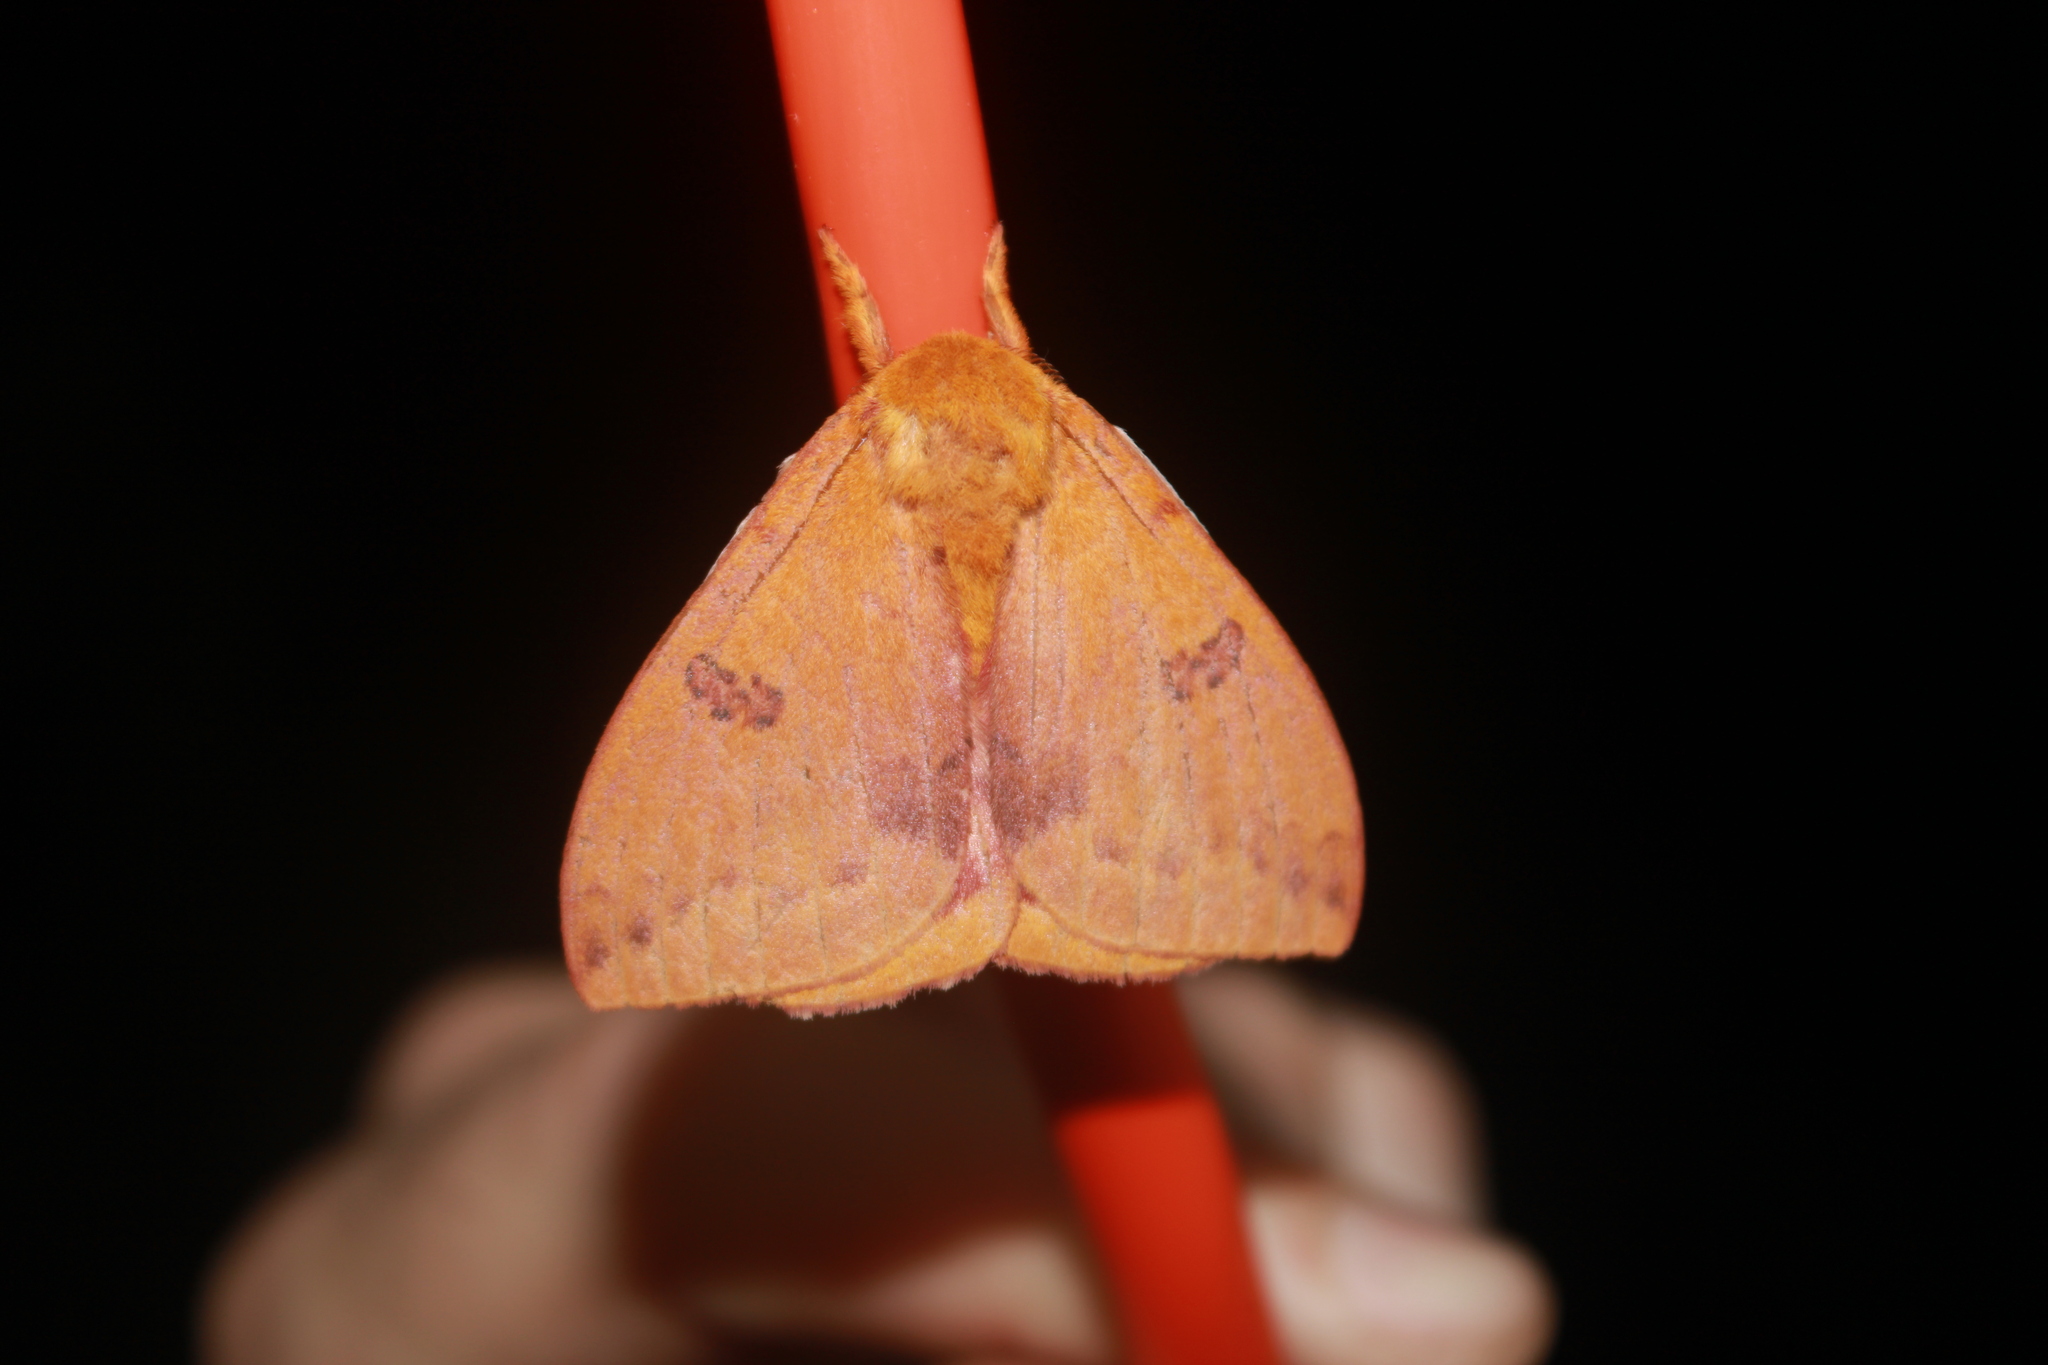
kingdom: Animalia
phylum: Arthropoda
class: Insecta
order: Lepidoptera
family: Saturniidae
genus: Automeris
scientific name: Automeris io
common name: Io moth
